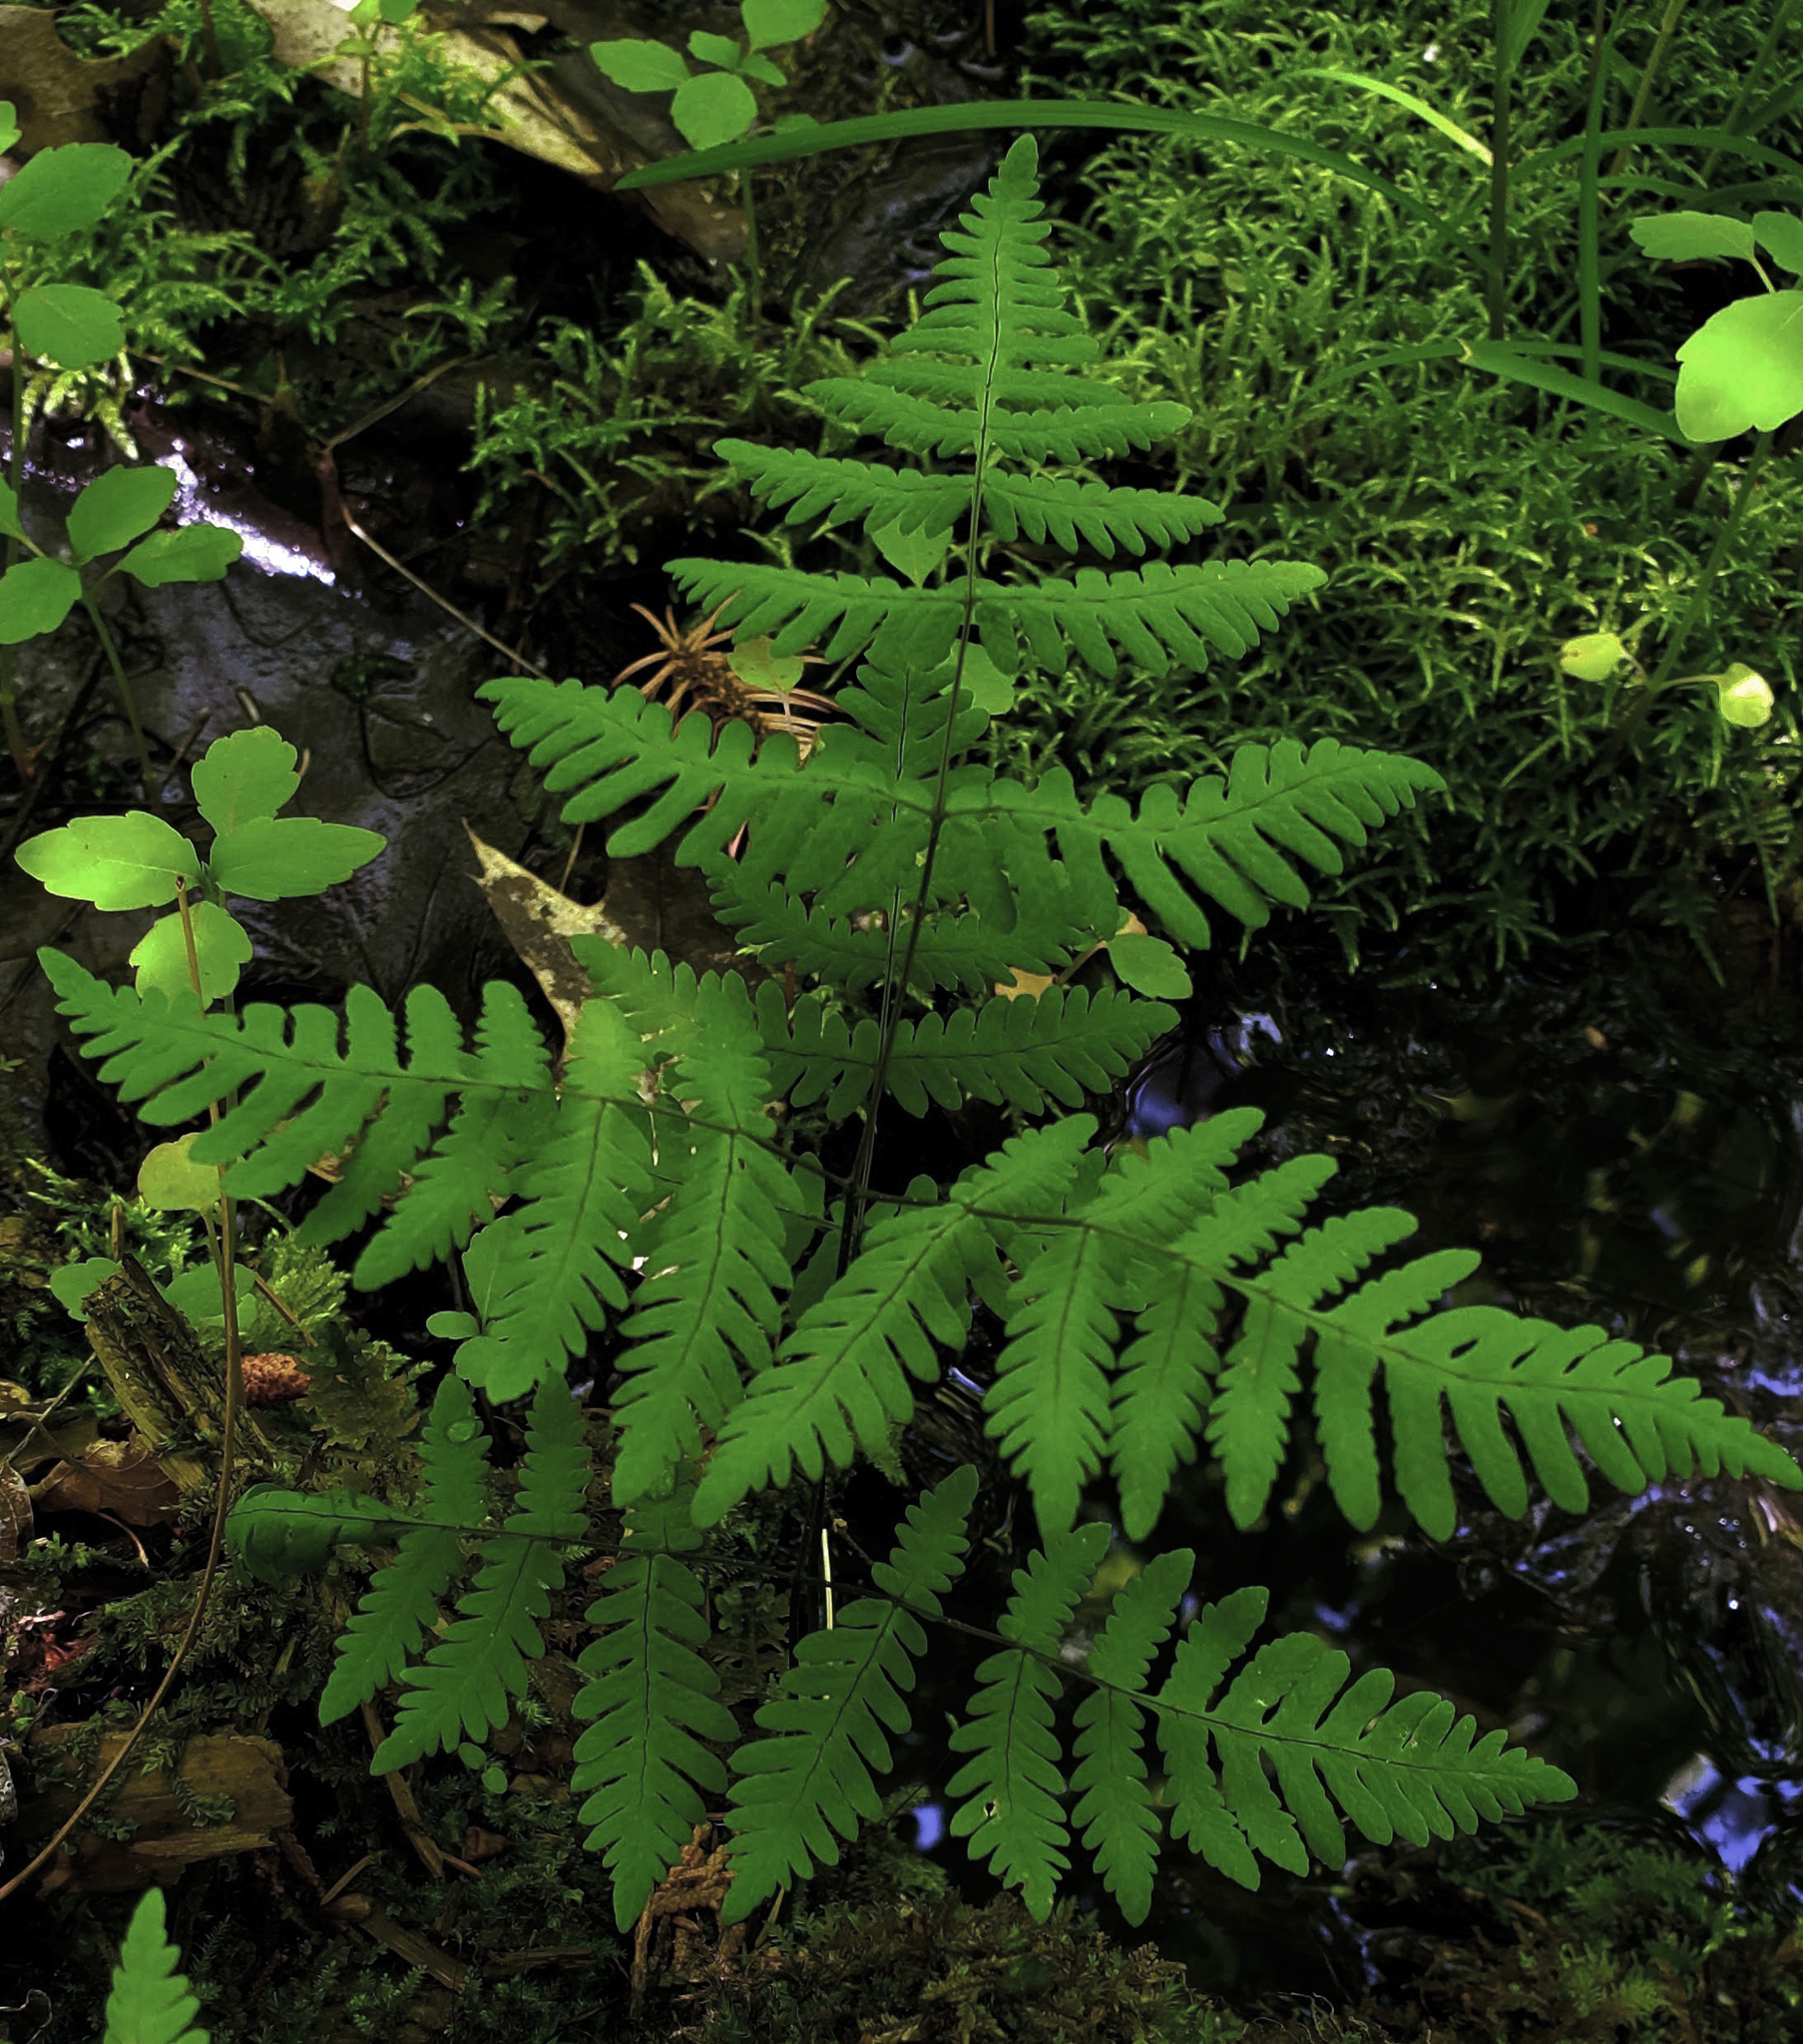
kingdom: Plantae
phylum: Tracheophyta
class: Polypodiopsida
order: Polypodiales
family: Cystopteridaceae
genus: Gymnocarpium
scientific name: Gymnocarpium dryopteris
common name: Oak fern
